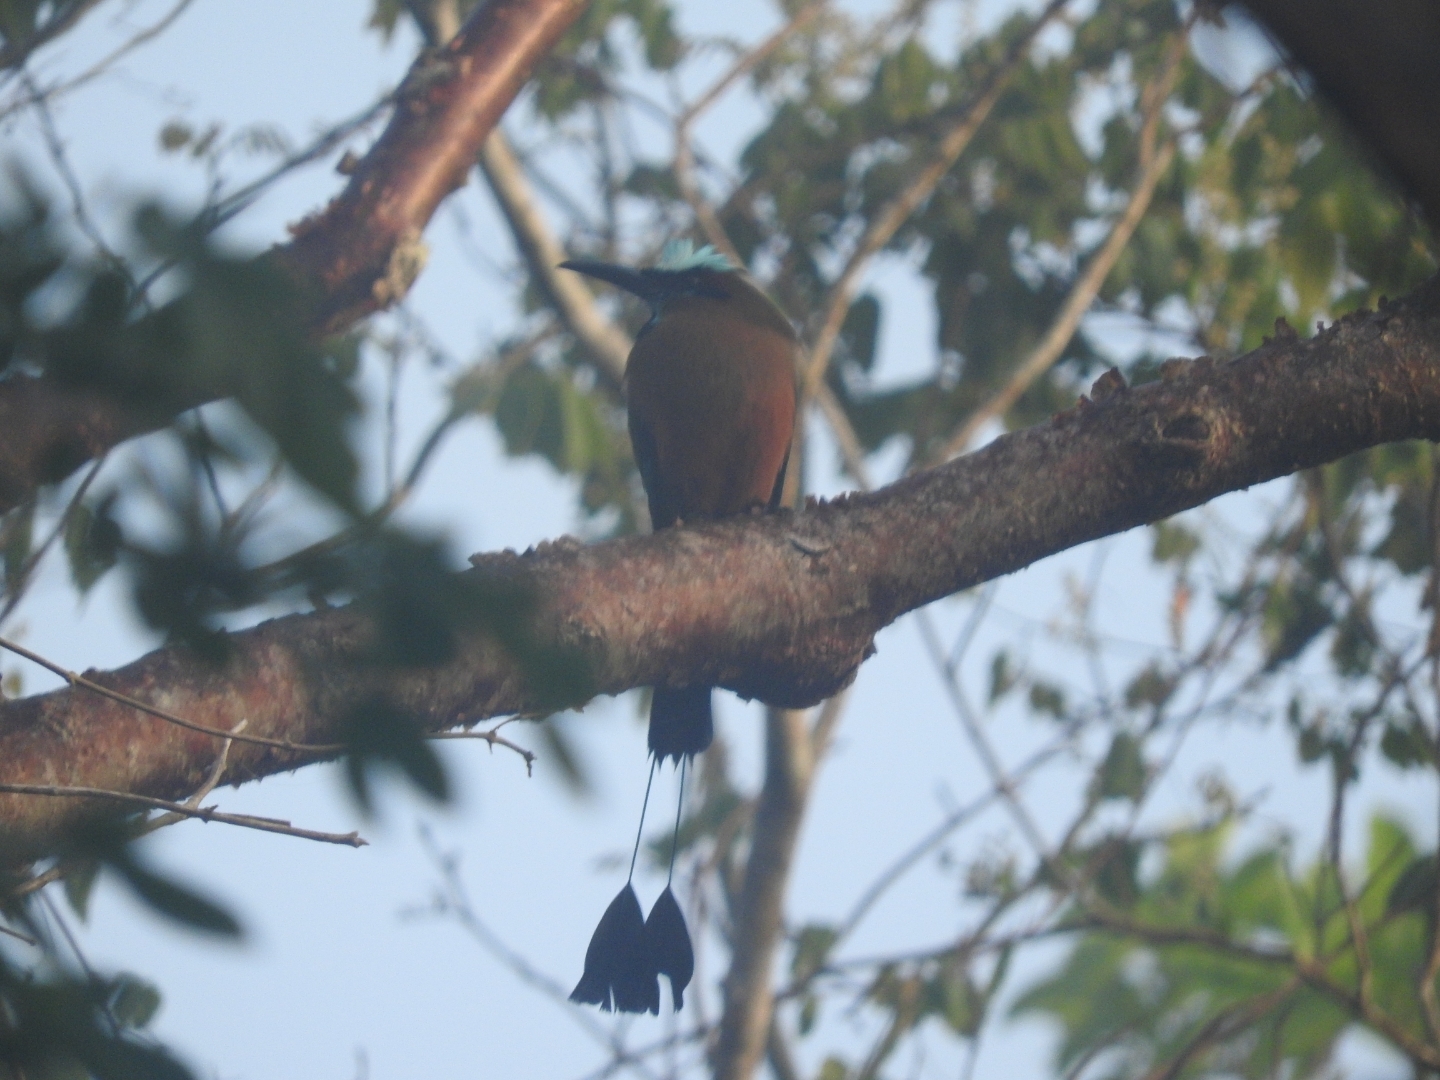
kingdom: Animalia
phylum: Chordata
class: Aves
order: Coraciiformes
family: Momotidae
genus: Eumomota
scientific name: Eumomota superciliosa
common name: Turquoise-browed motmot
